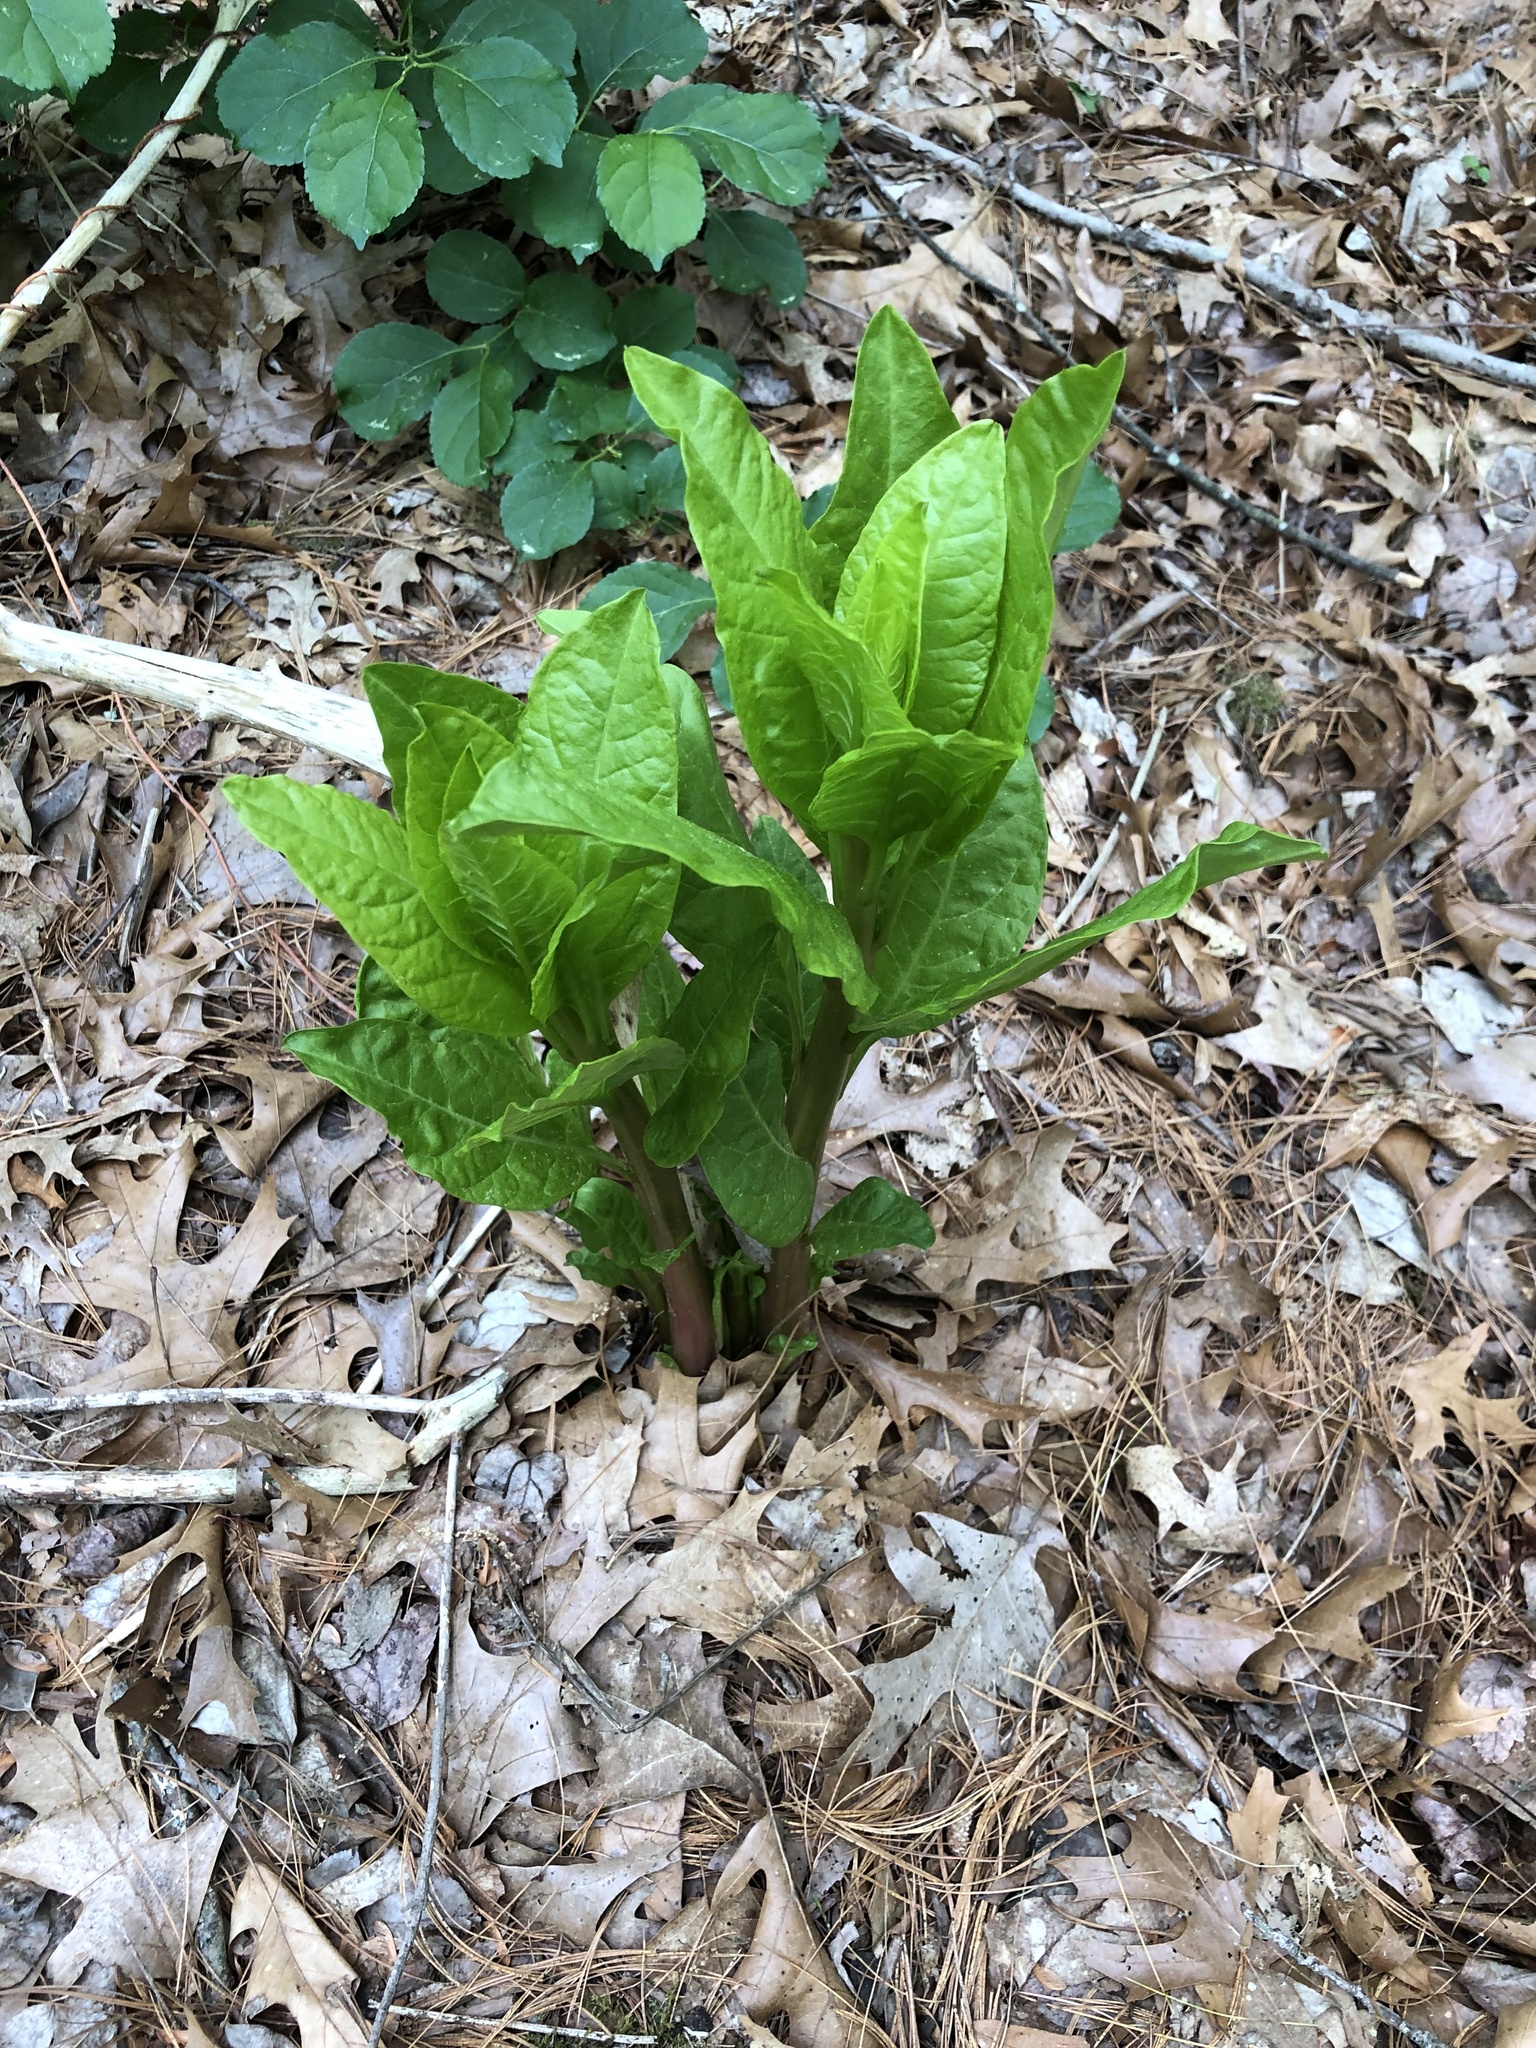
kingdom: Plantae
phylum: Tracheophyta
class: Magnoliopsida
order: Caryophyllales
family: Phytolaccaceae
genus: Phytolacca
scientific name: Phytolacca americana
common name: American pokeweed
